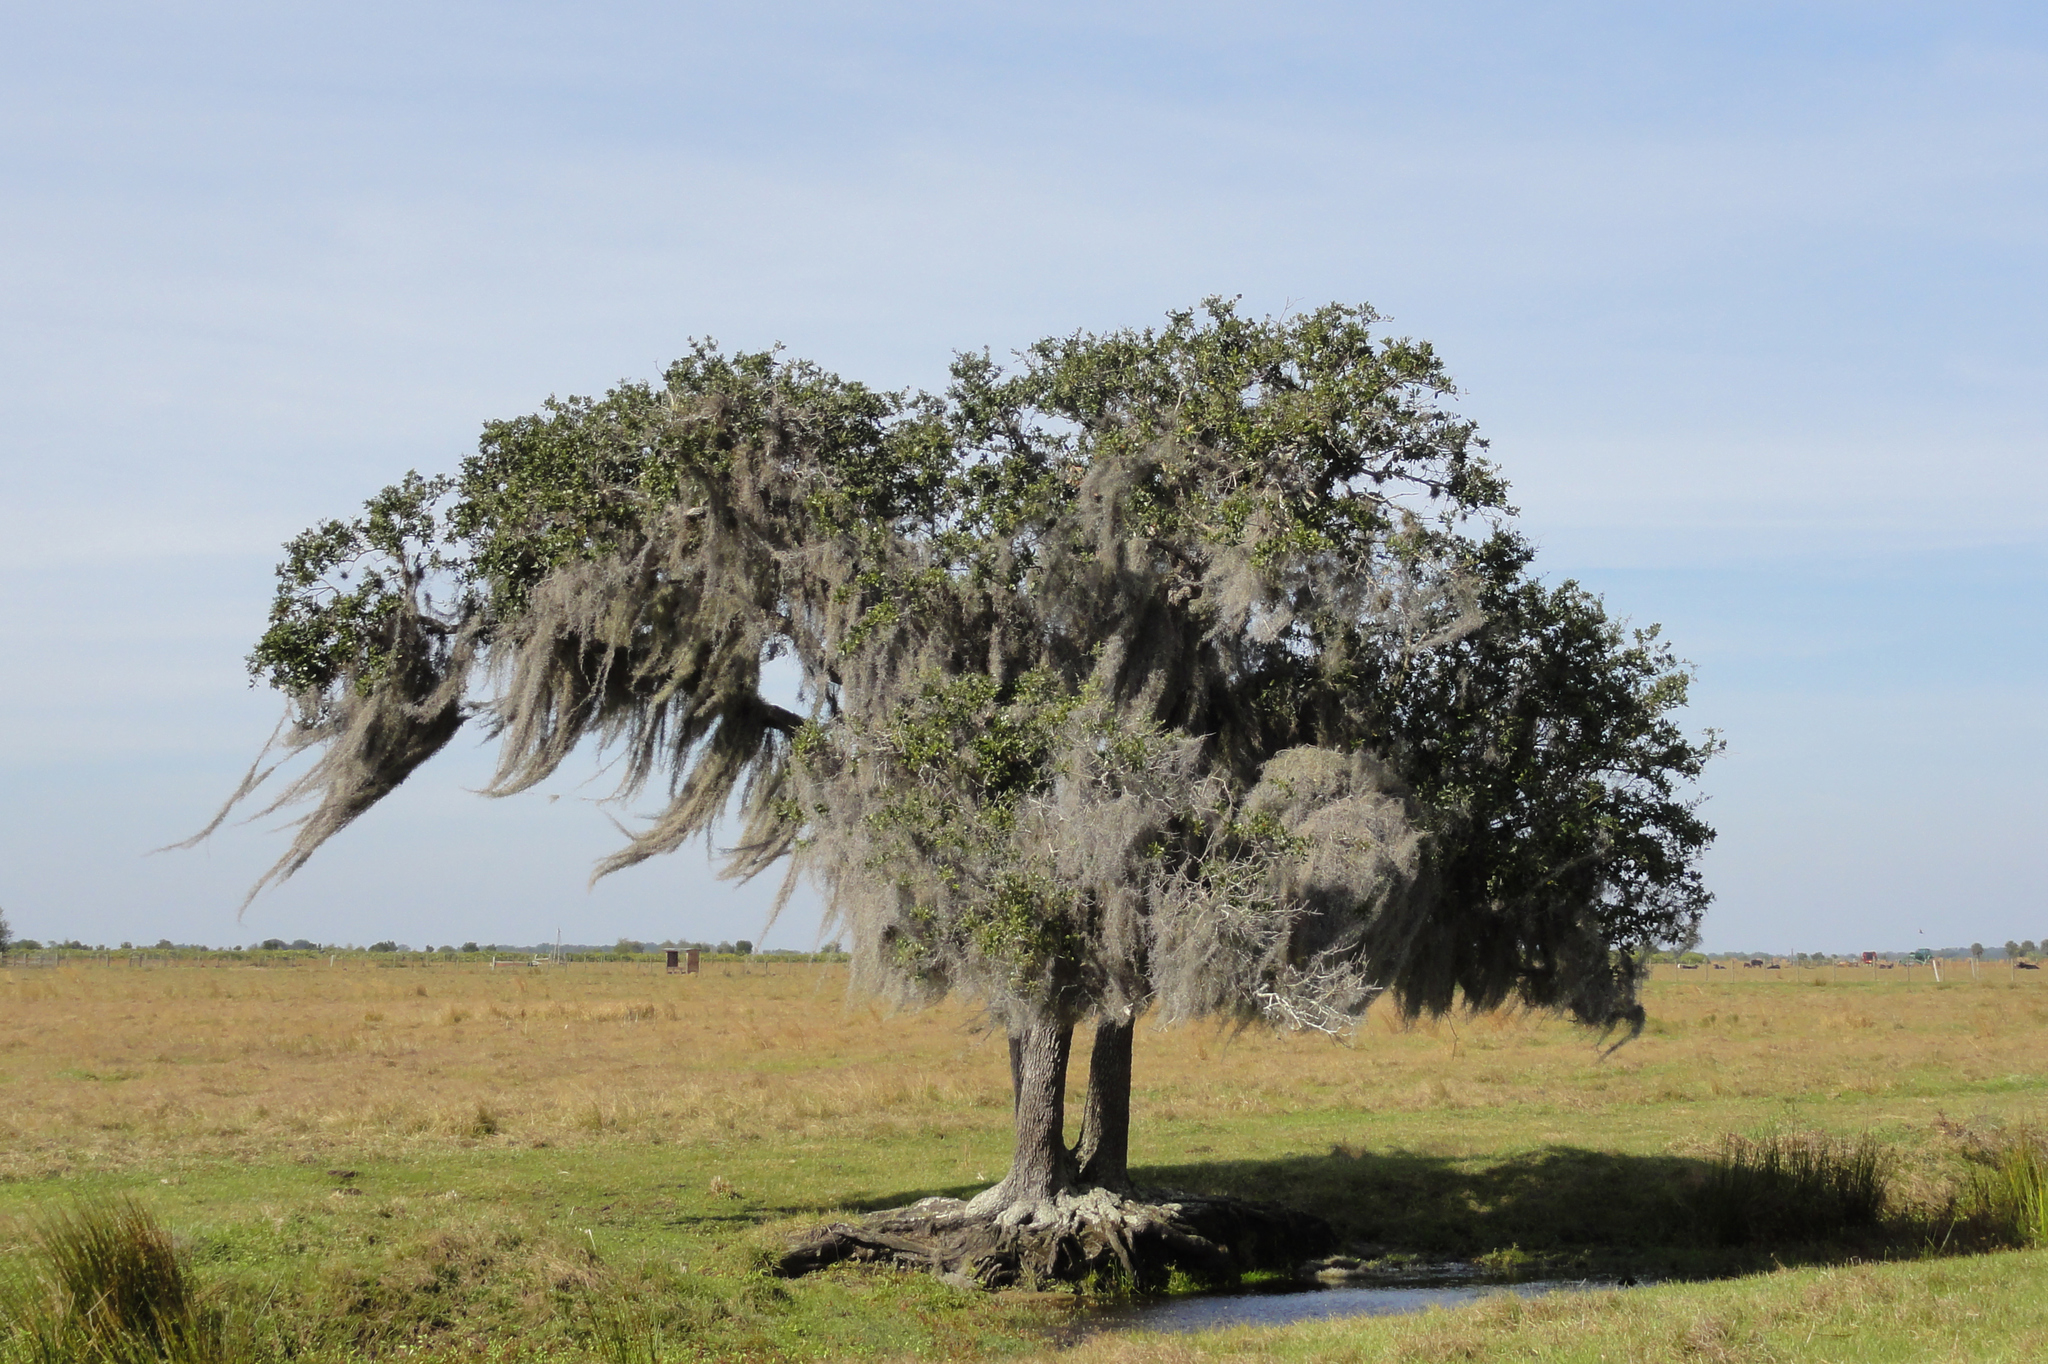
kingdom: Plantae
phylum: Tracheophyta
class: Liliopsida
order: Poales
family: Bromeliaceae
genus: Tillandsia
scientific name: Tillandsia usneoides
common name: Spanish moss
